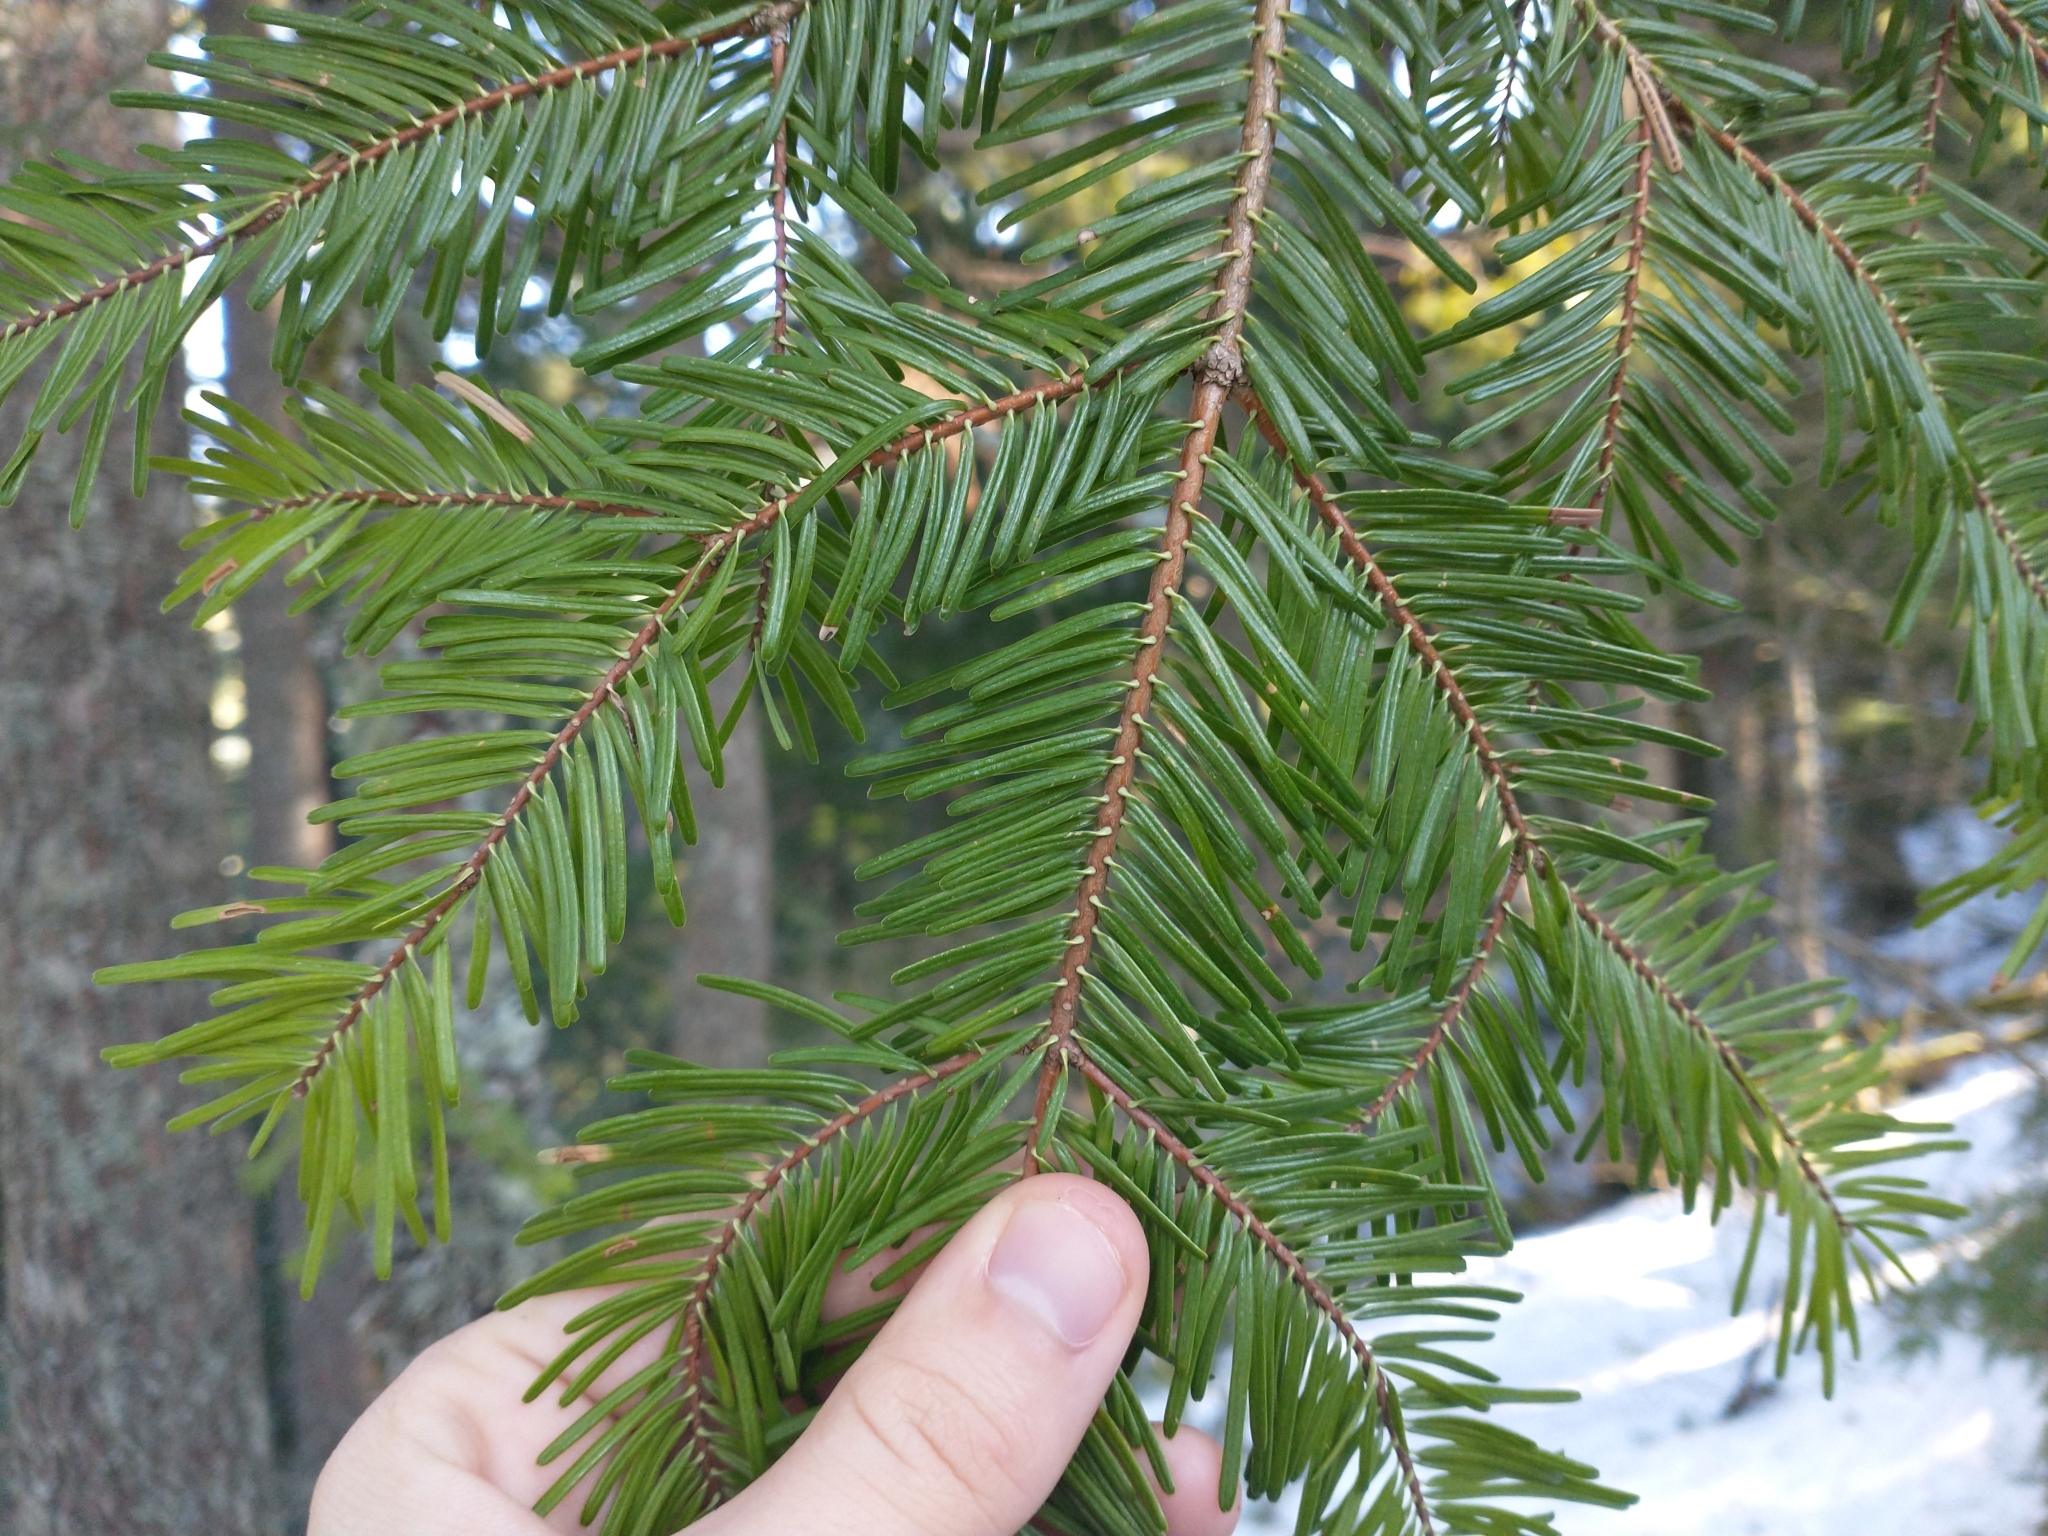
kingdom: Plantae
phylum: Tracheophyta
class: Pinopsida
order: Pinales
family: Pinaceae
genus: Abies
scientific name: Abies grandis
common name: Giant fir
